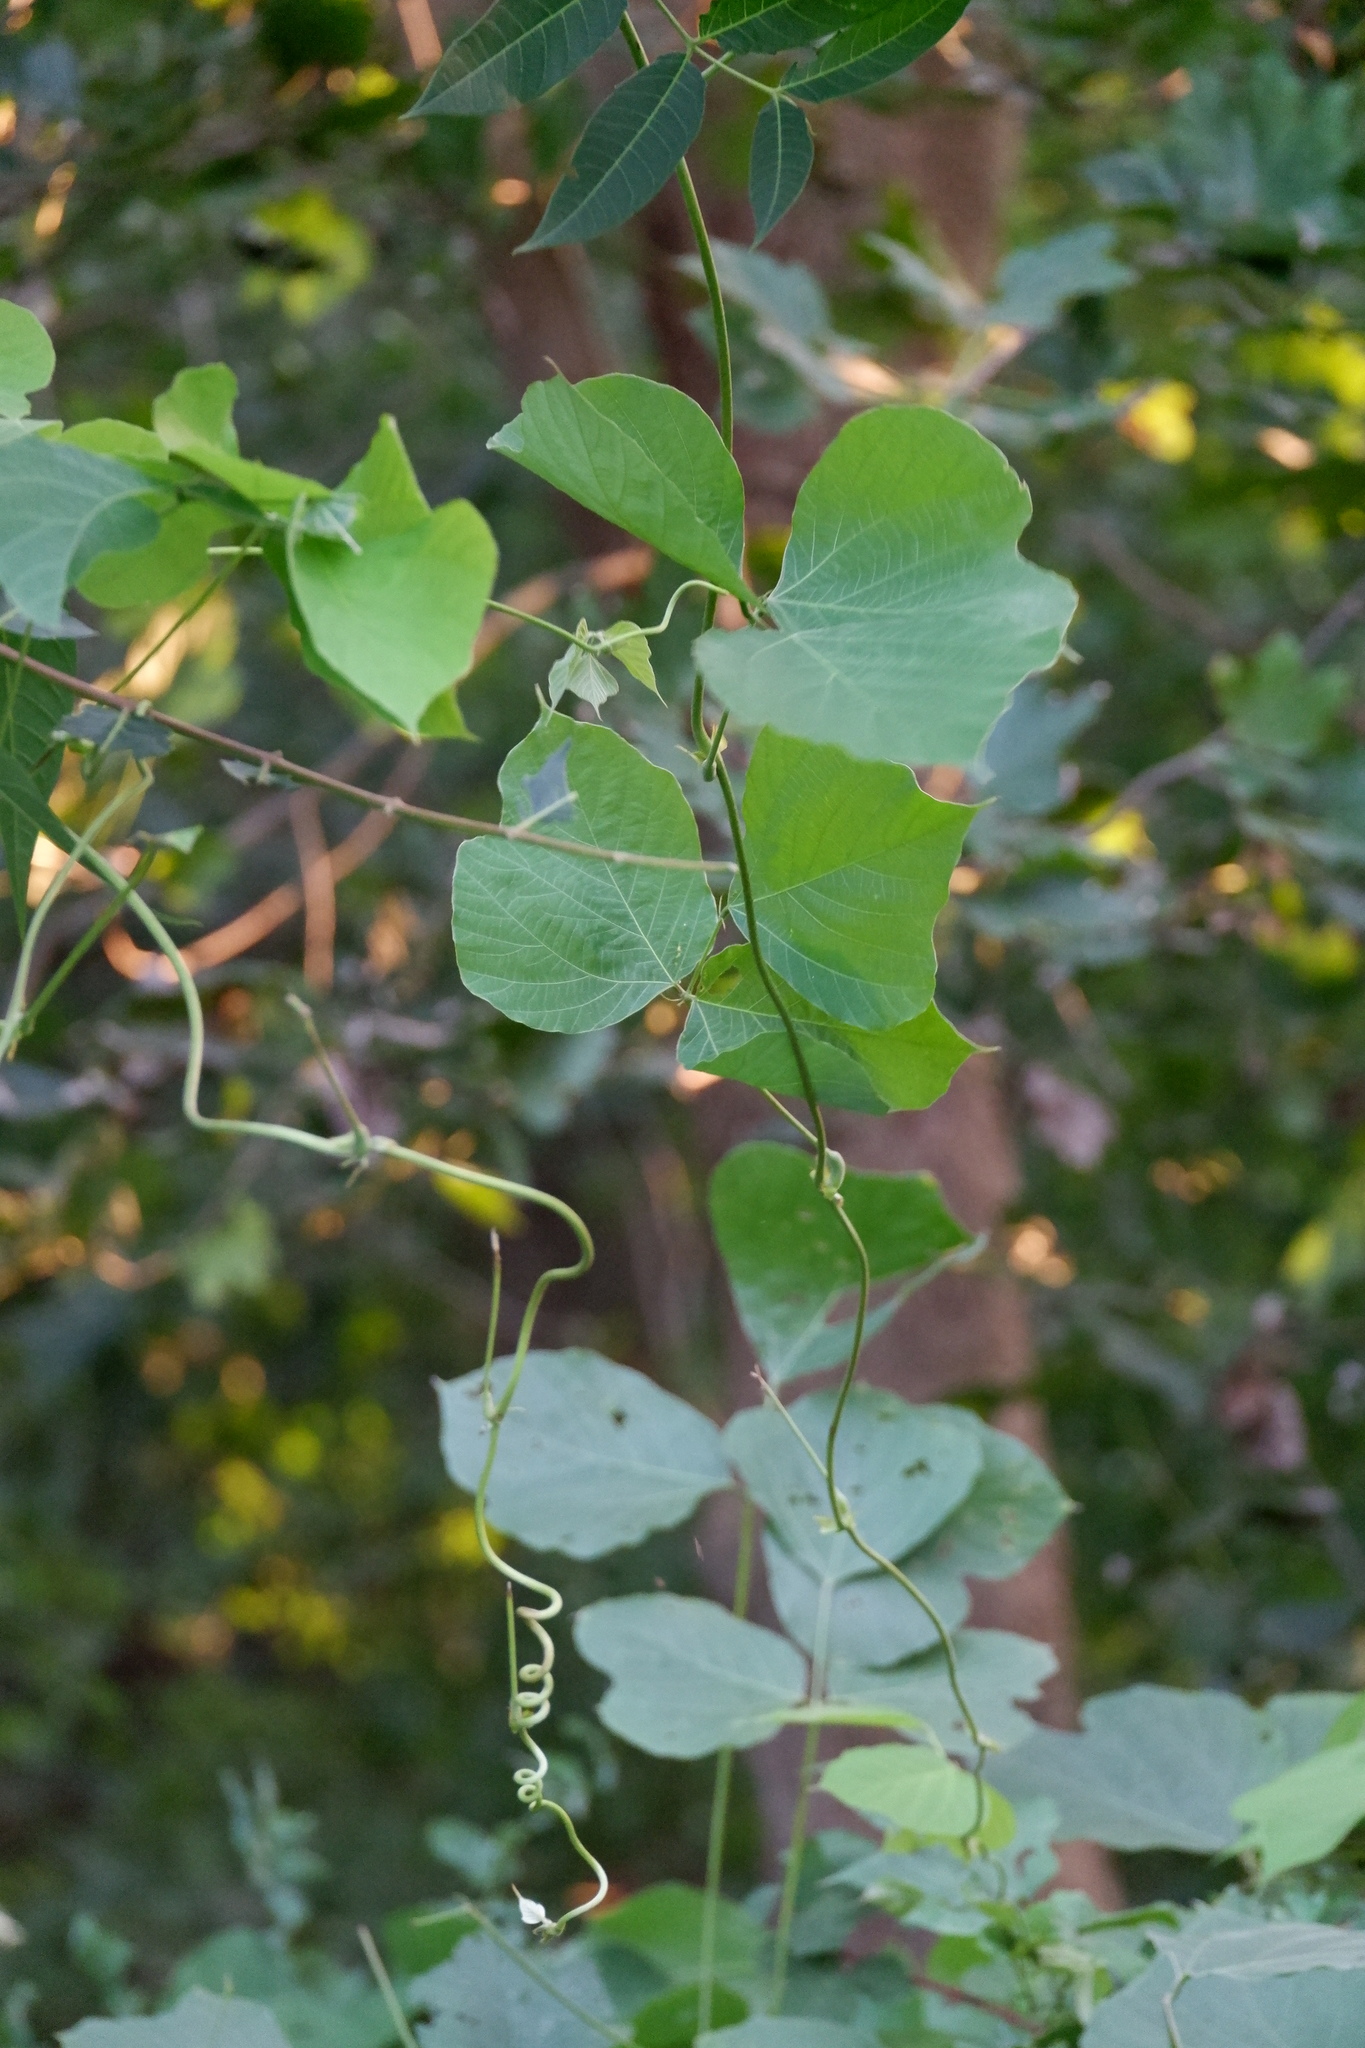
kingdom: Plantae
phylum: Tracheophyta
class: Magnoliopsida
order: Fabales
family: Fabaceae
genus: Pueraria
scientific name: Pueraria montana
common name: Kudzu
